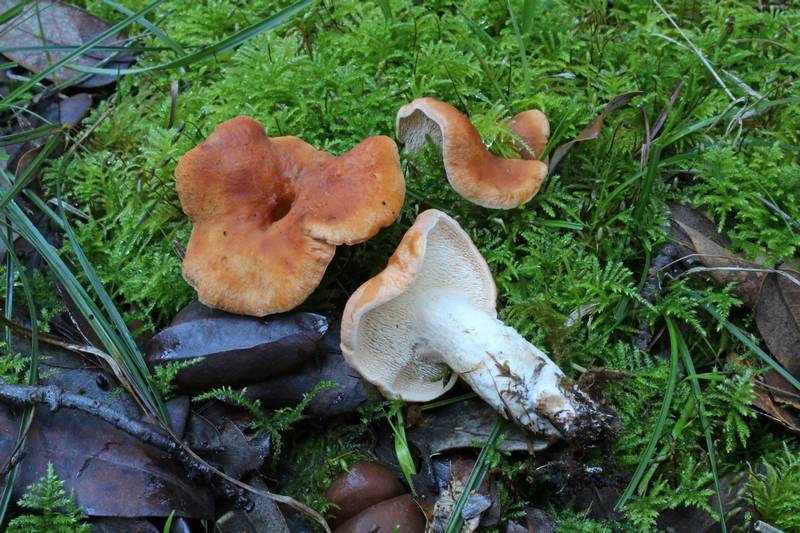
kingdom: Fungi
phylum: Basidiomycota
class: Agaricomycetes
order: Cantharellales
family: Hydnaceae
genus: Hydnum
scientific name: Hydnum ovoideisporum
